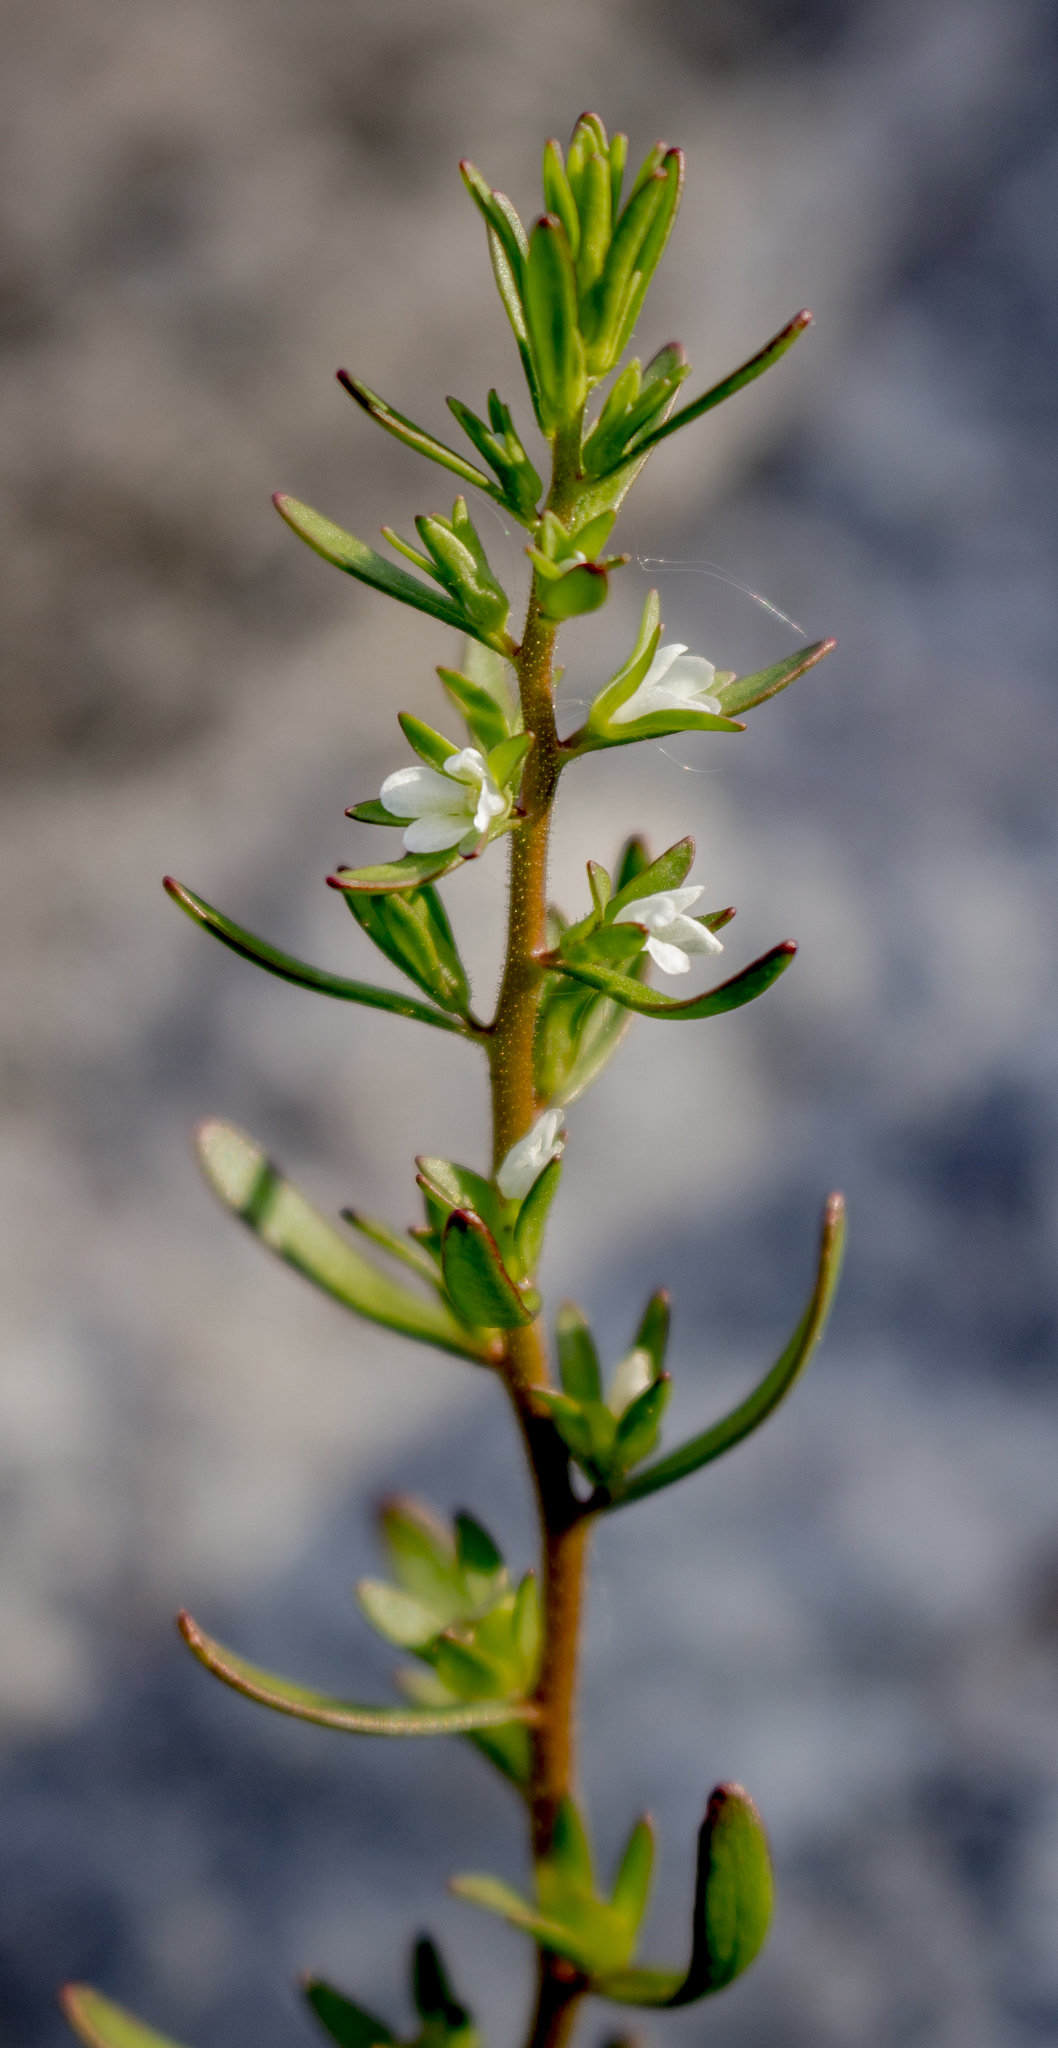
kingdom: Plantae
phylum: Tracheophyta
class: Magnoliopsida
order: Lamiales
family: Plantaginaceae
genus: Veronica
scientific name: Veronica peregrina
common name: Neckweed
